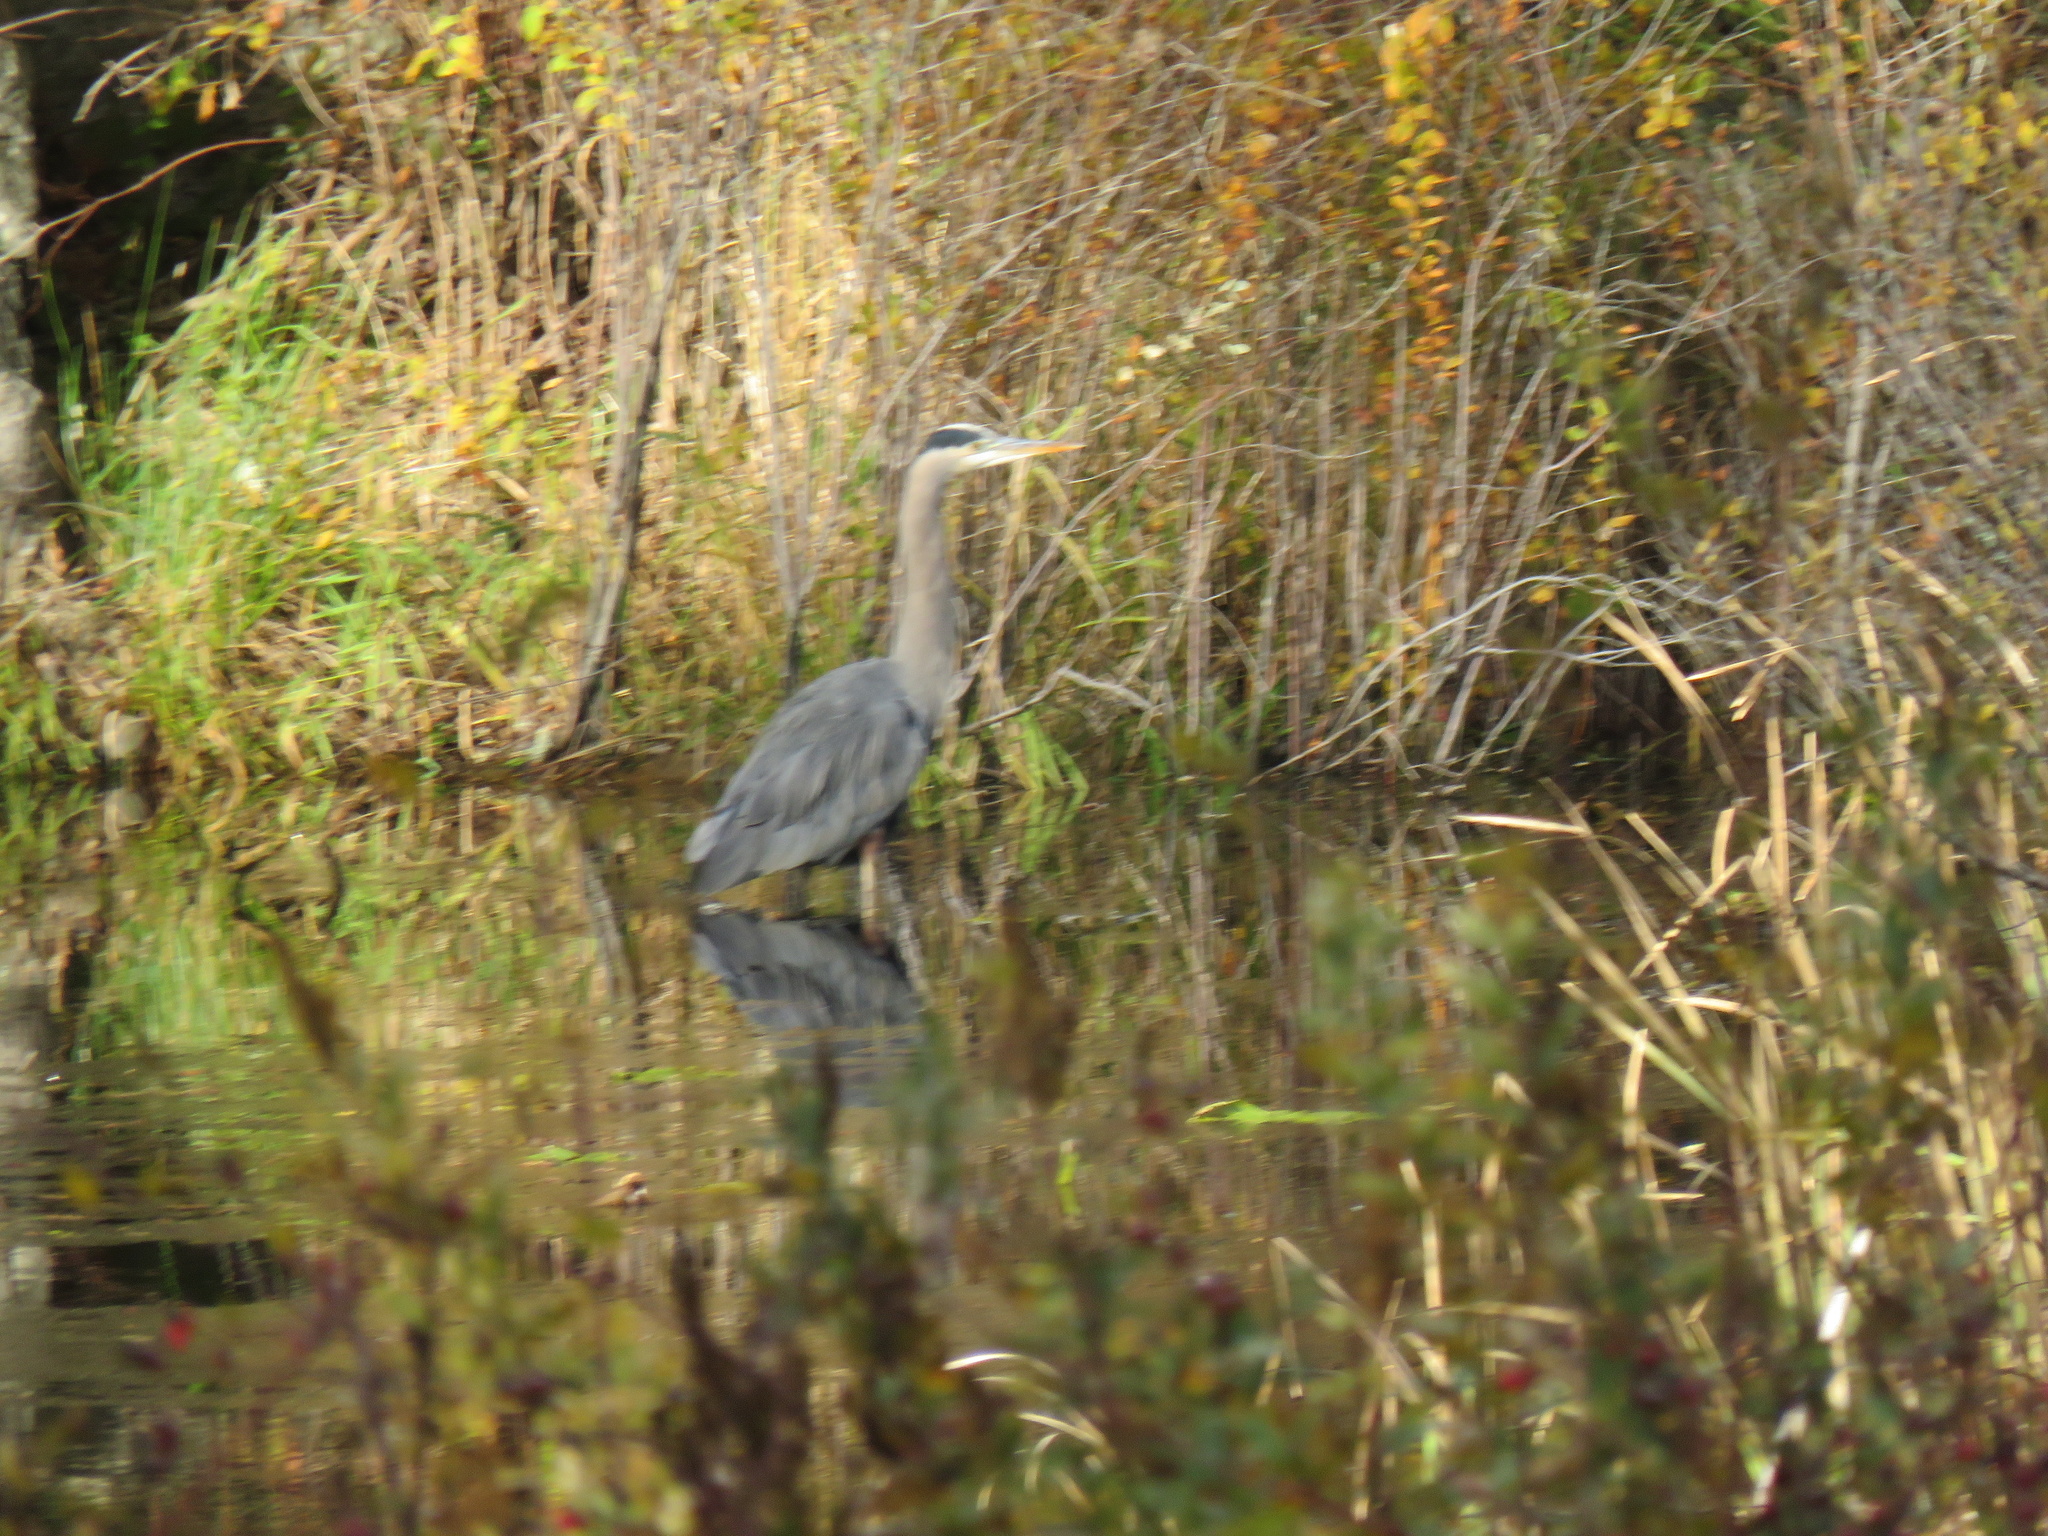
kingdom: Animalia
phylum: Chordata
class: Aves
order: Pelecaniformes
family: Ardeidae
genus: Ardea
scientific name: Ardea herodias
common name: Great blue heron
